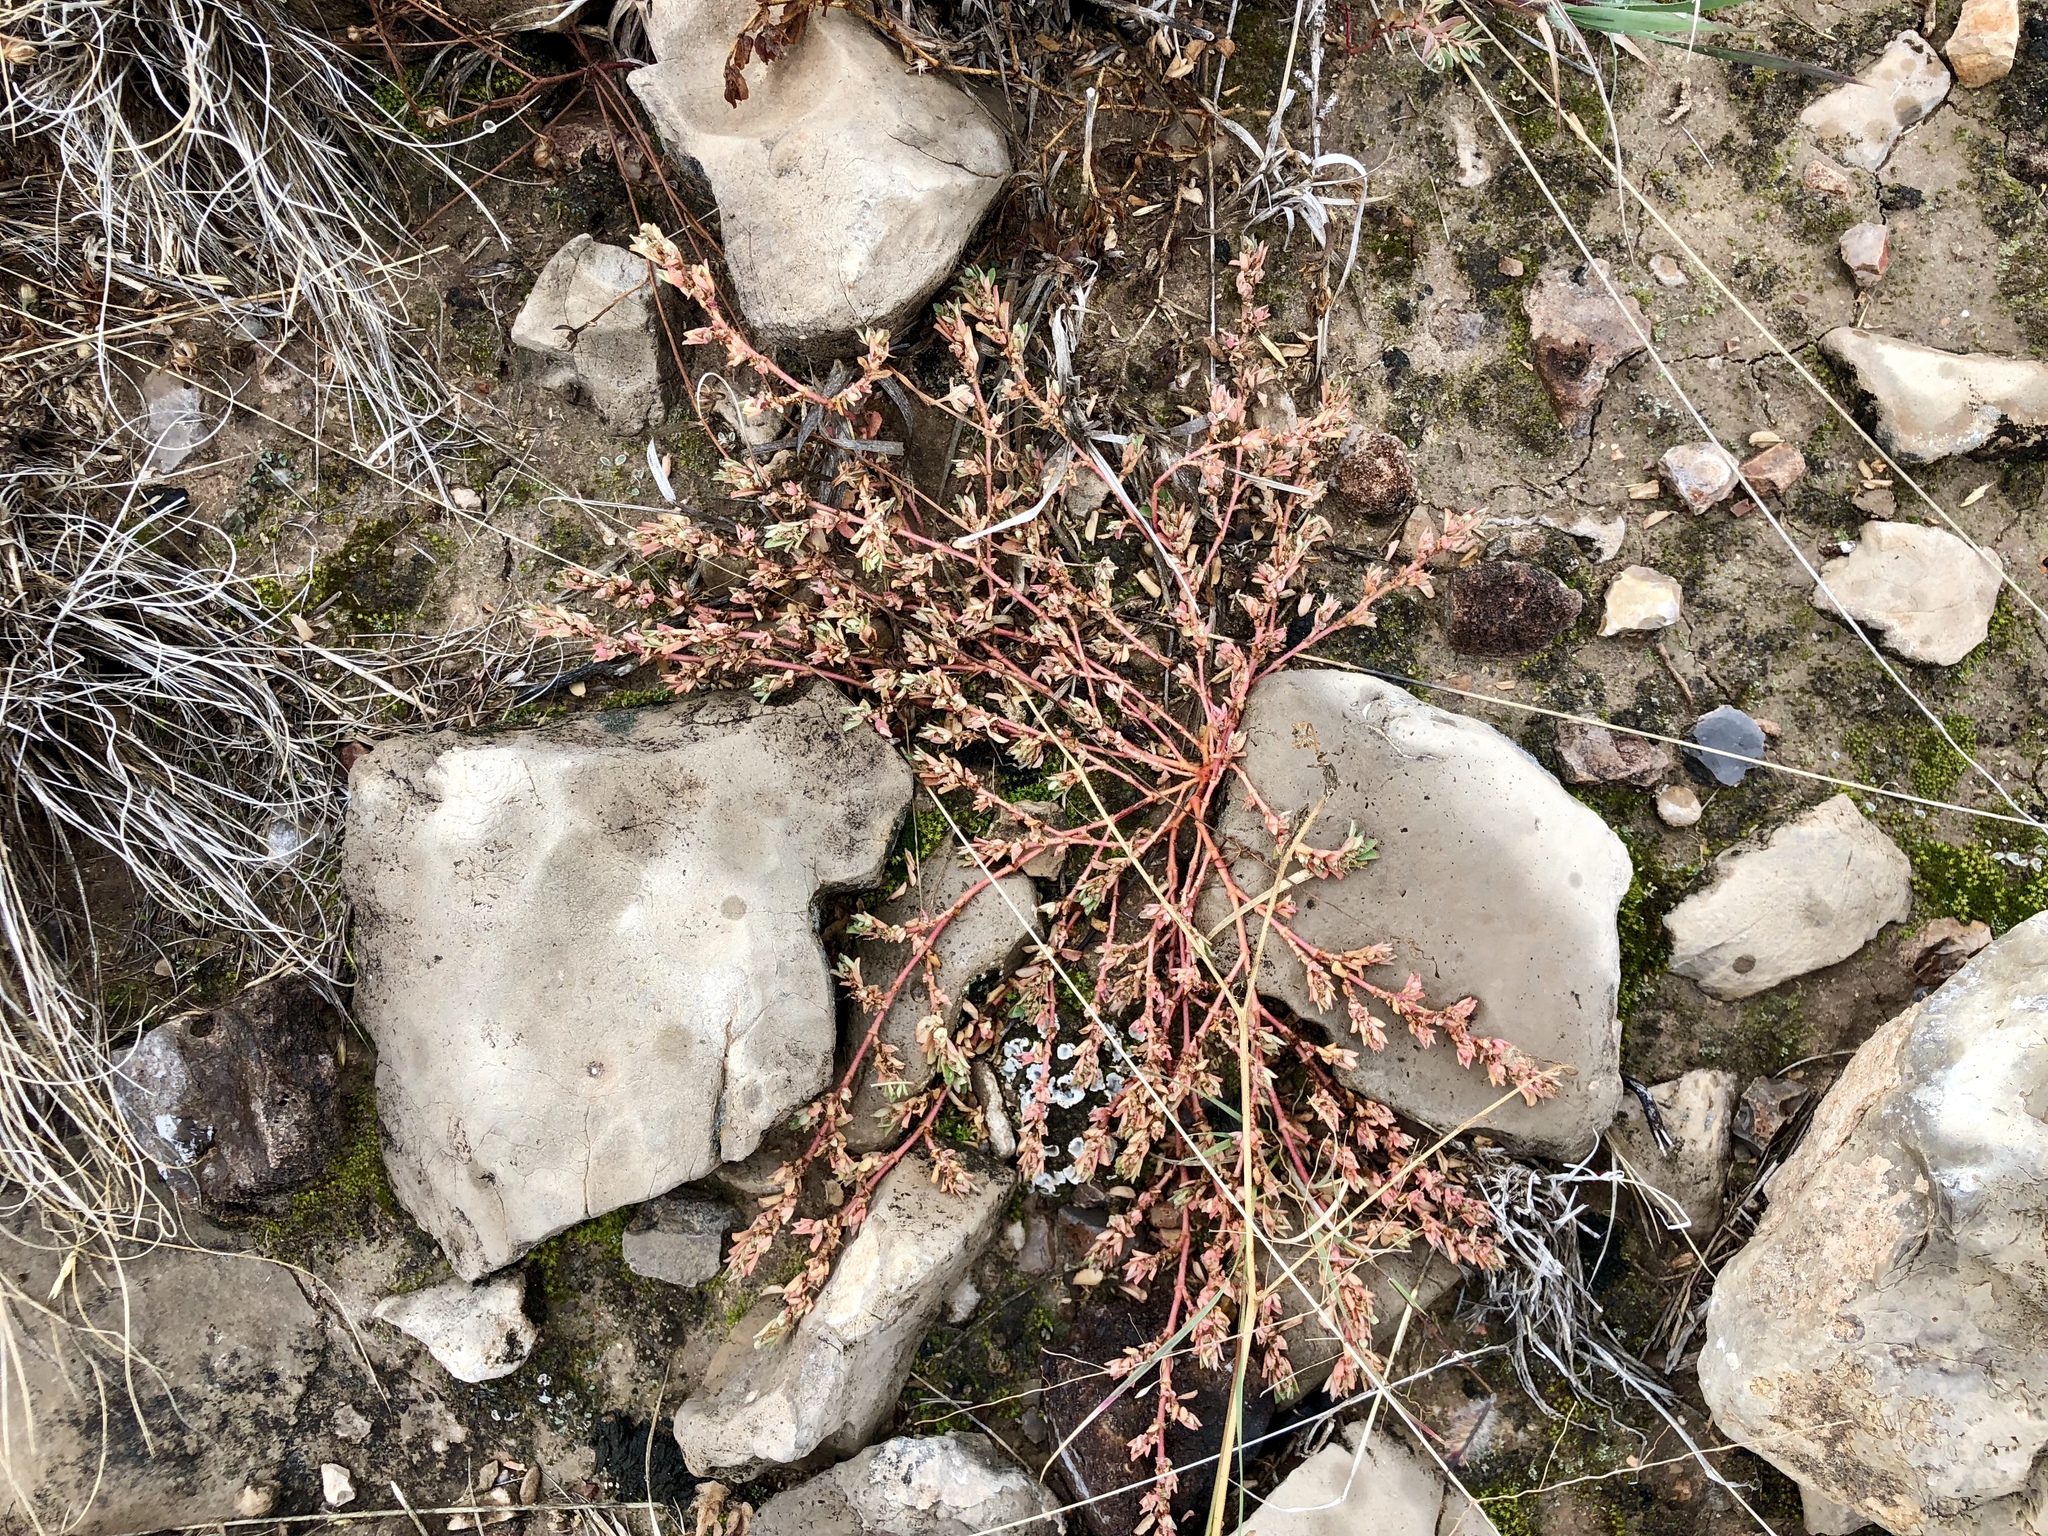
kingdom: Plantae
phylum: Tracheophyta
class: Magnoliopsida
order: Malpighiales
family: Euphorbiaceae
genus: Euphorbia
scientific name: Euphorbia stictospora
